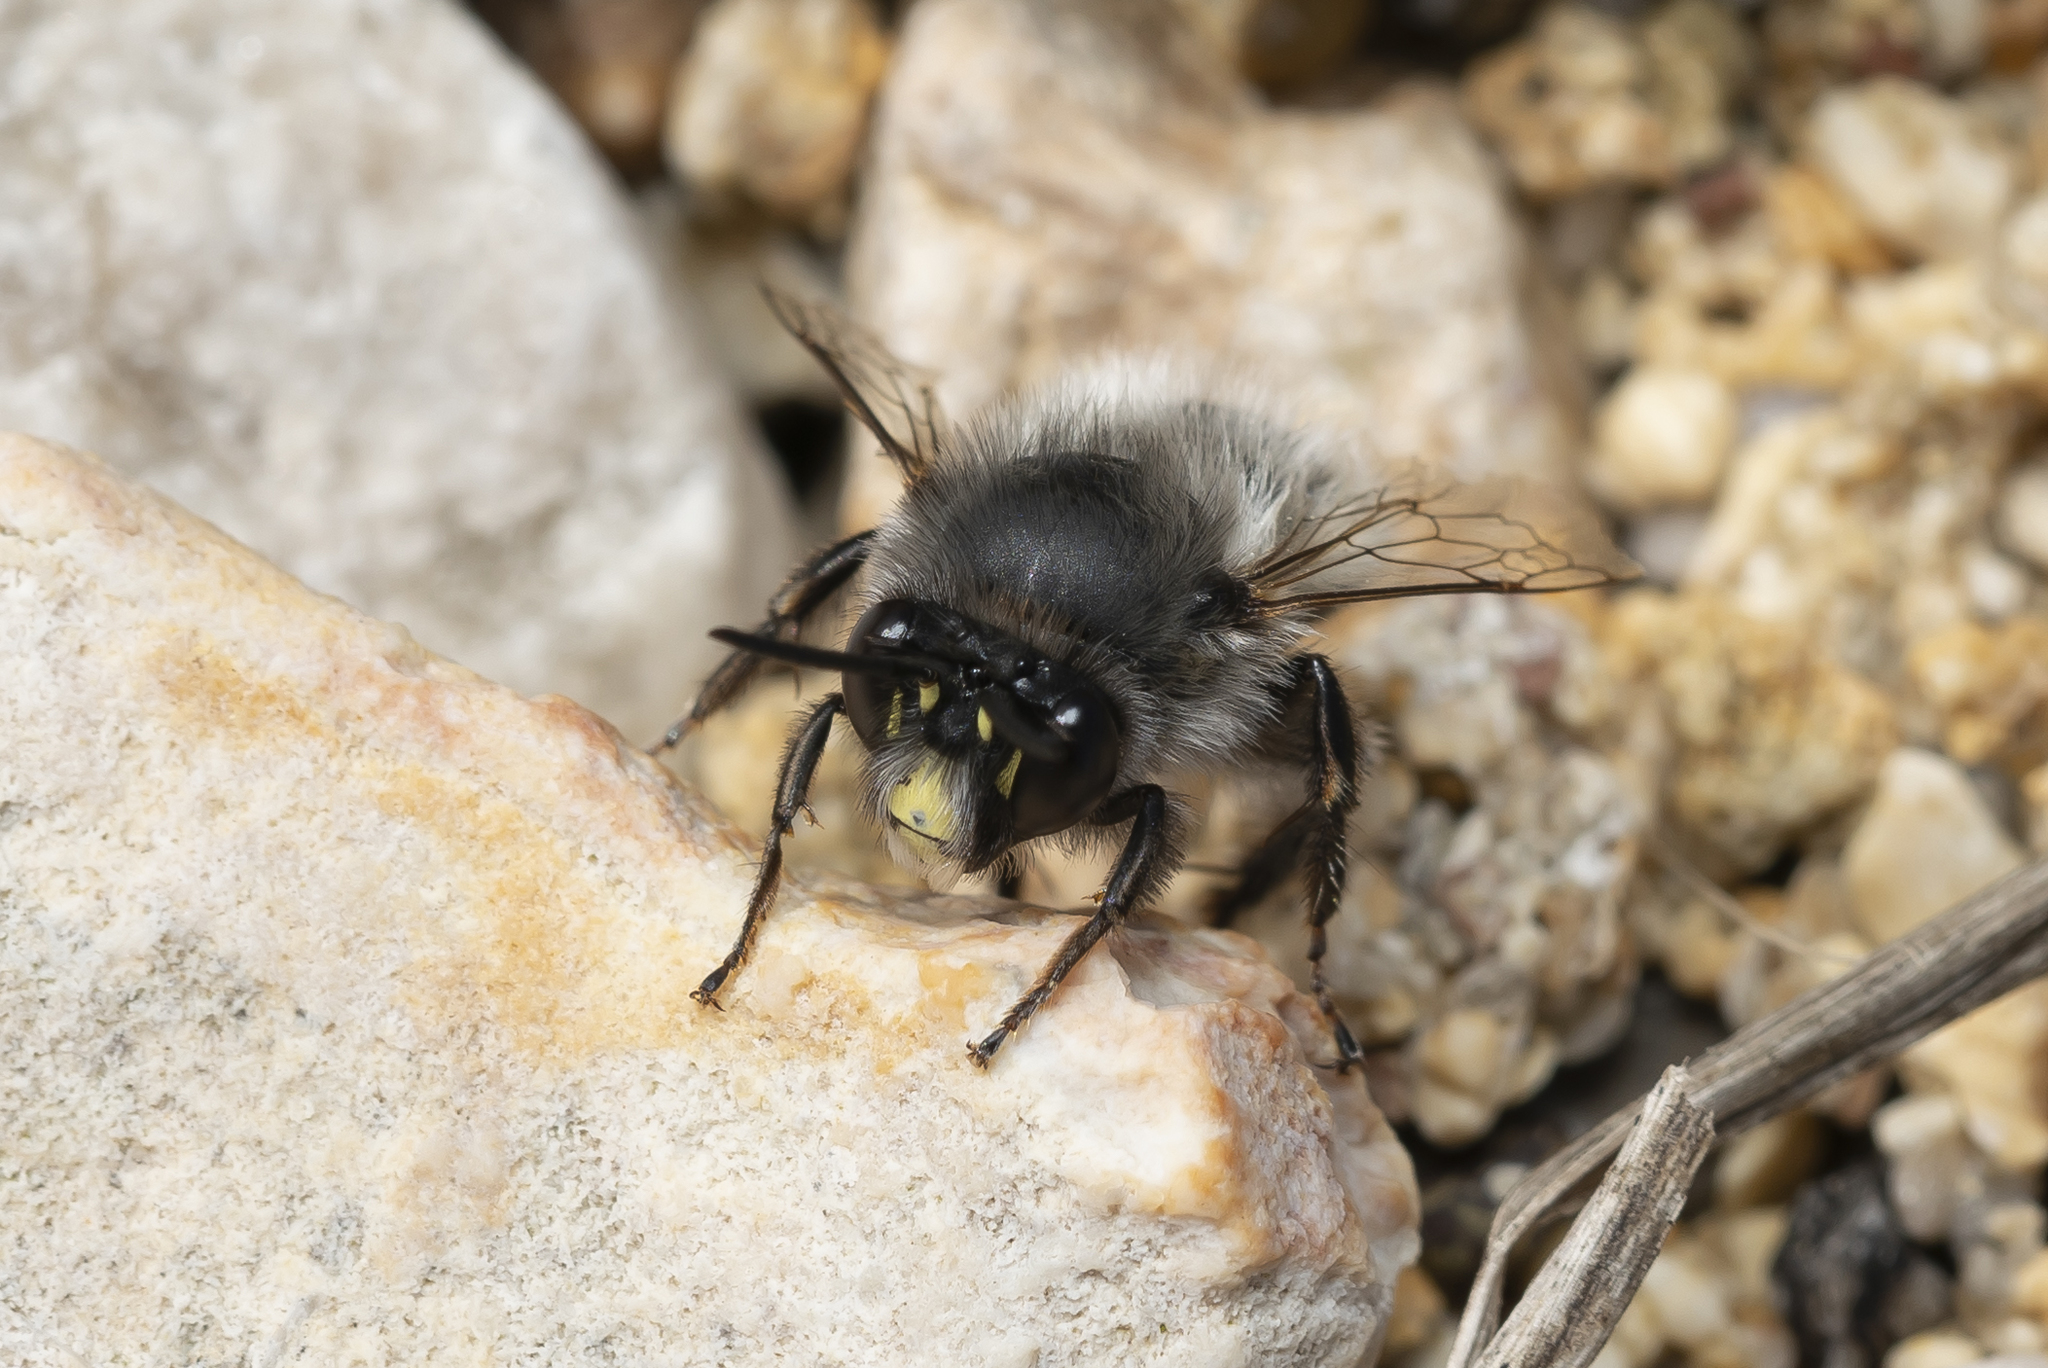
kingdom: Animalia
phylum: Arthropoda
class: Insecta
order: Hymenoptera
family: Apidae
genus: Anthophora
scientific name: Anthophora rubricrus
